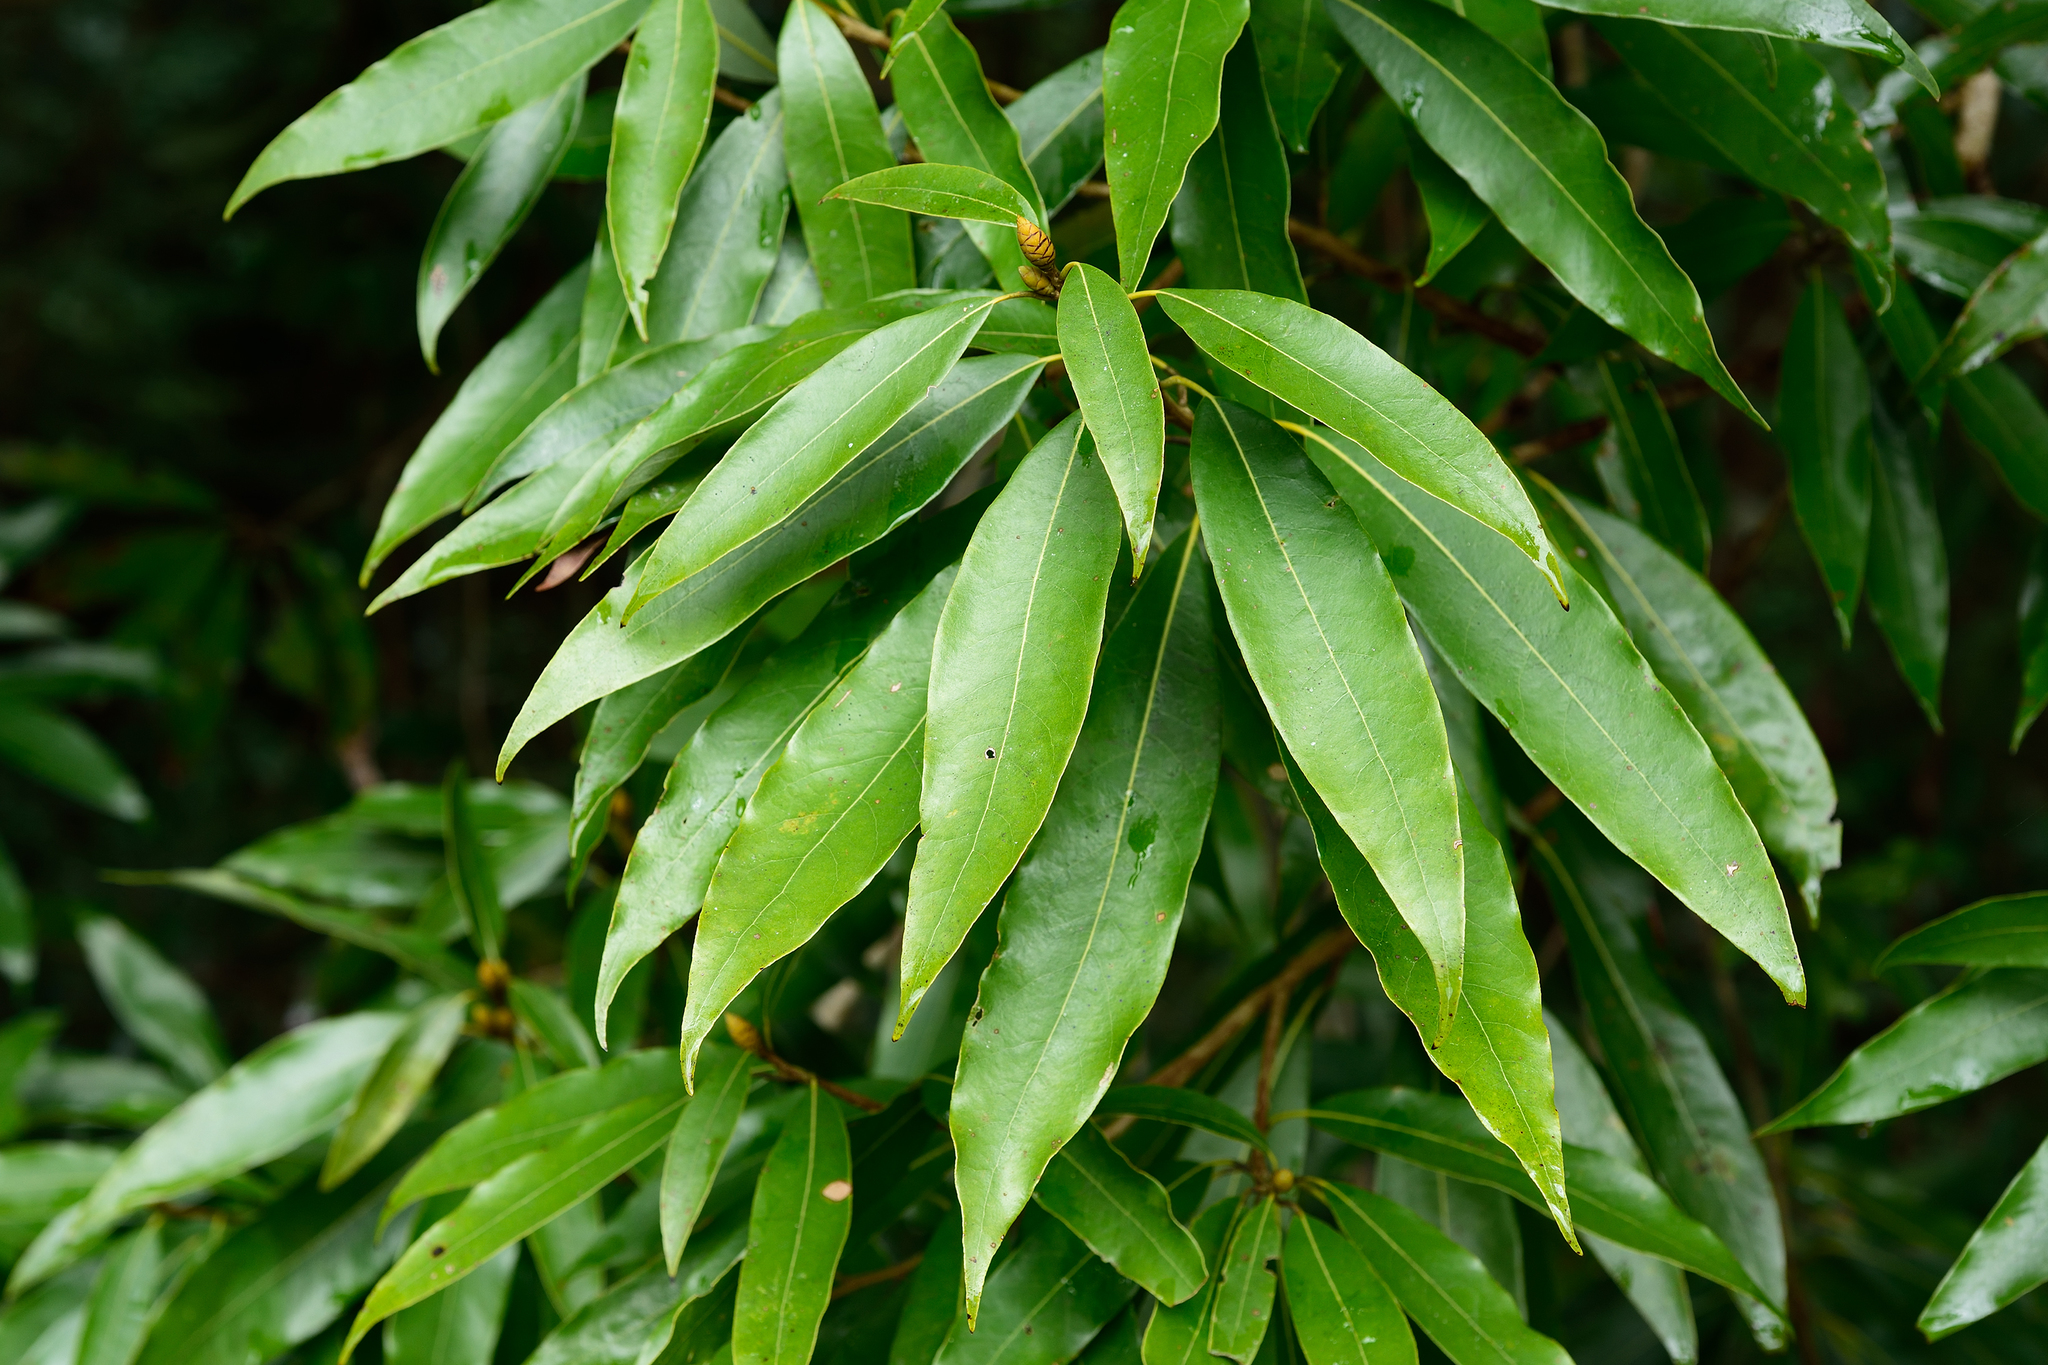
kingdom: Plantae
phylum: Tracheophyta
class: Magnoliopsida
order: Laurales
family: Lauraceae
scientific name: Lauraceae
